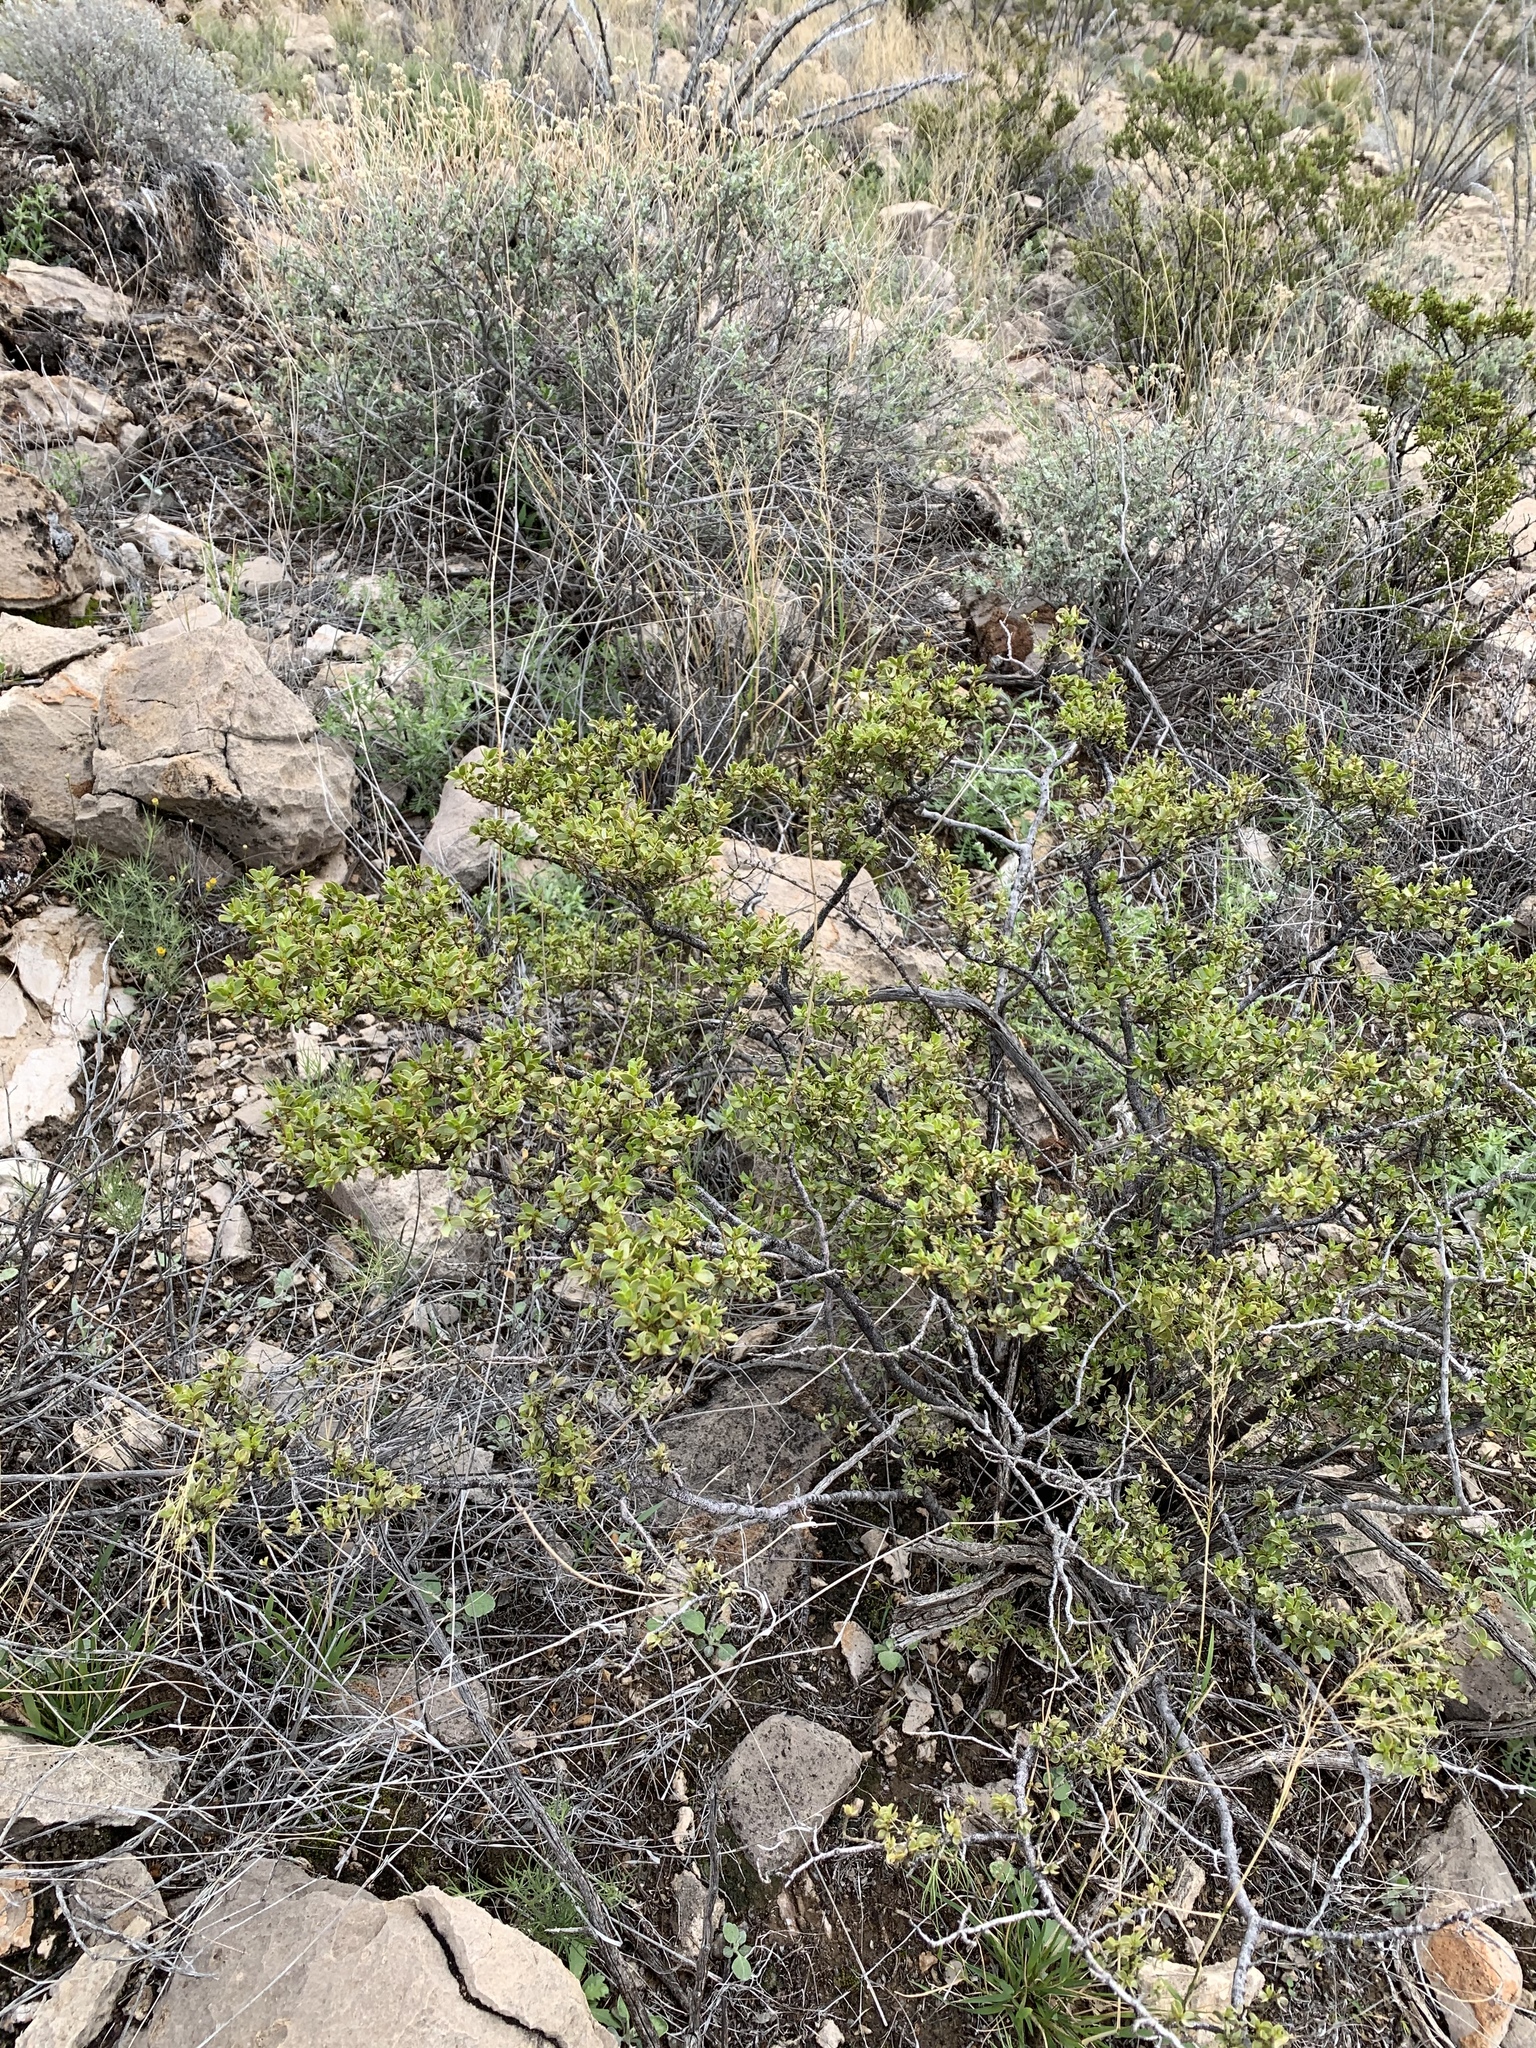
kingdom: Plantae
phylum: Tracheophyta
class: Magnoliopsida
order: Zygophyllales
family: Zygophyllaceae
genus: Larrea
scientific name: Larrea tridentata
